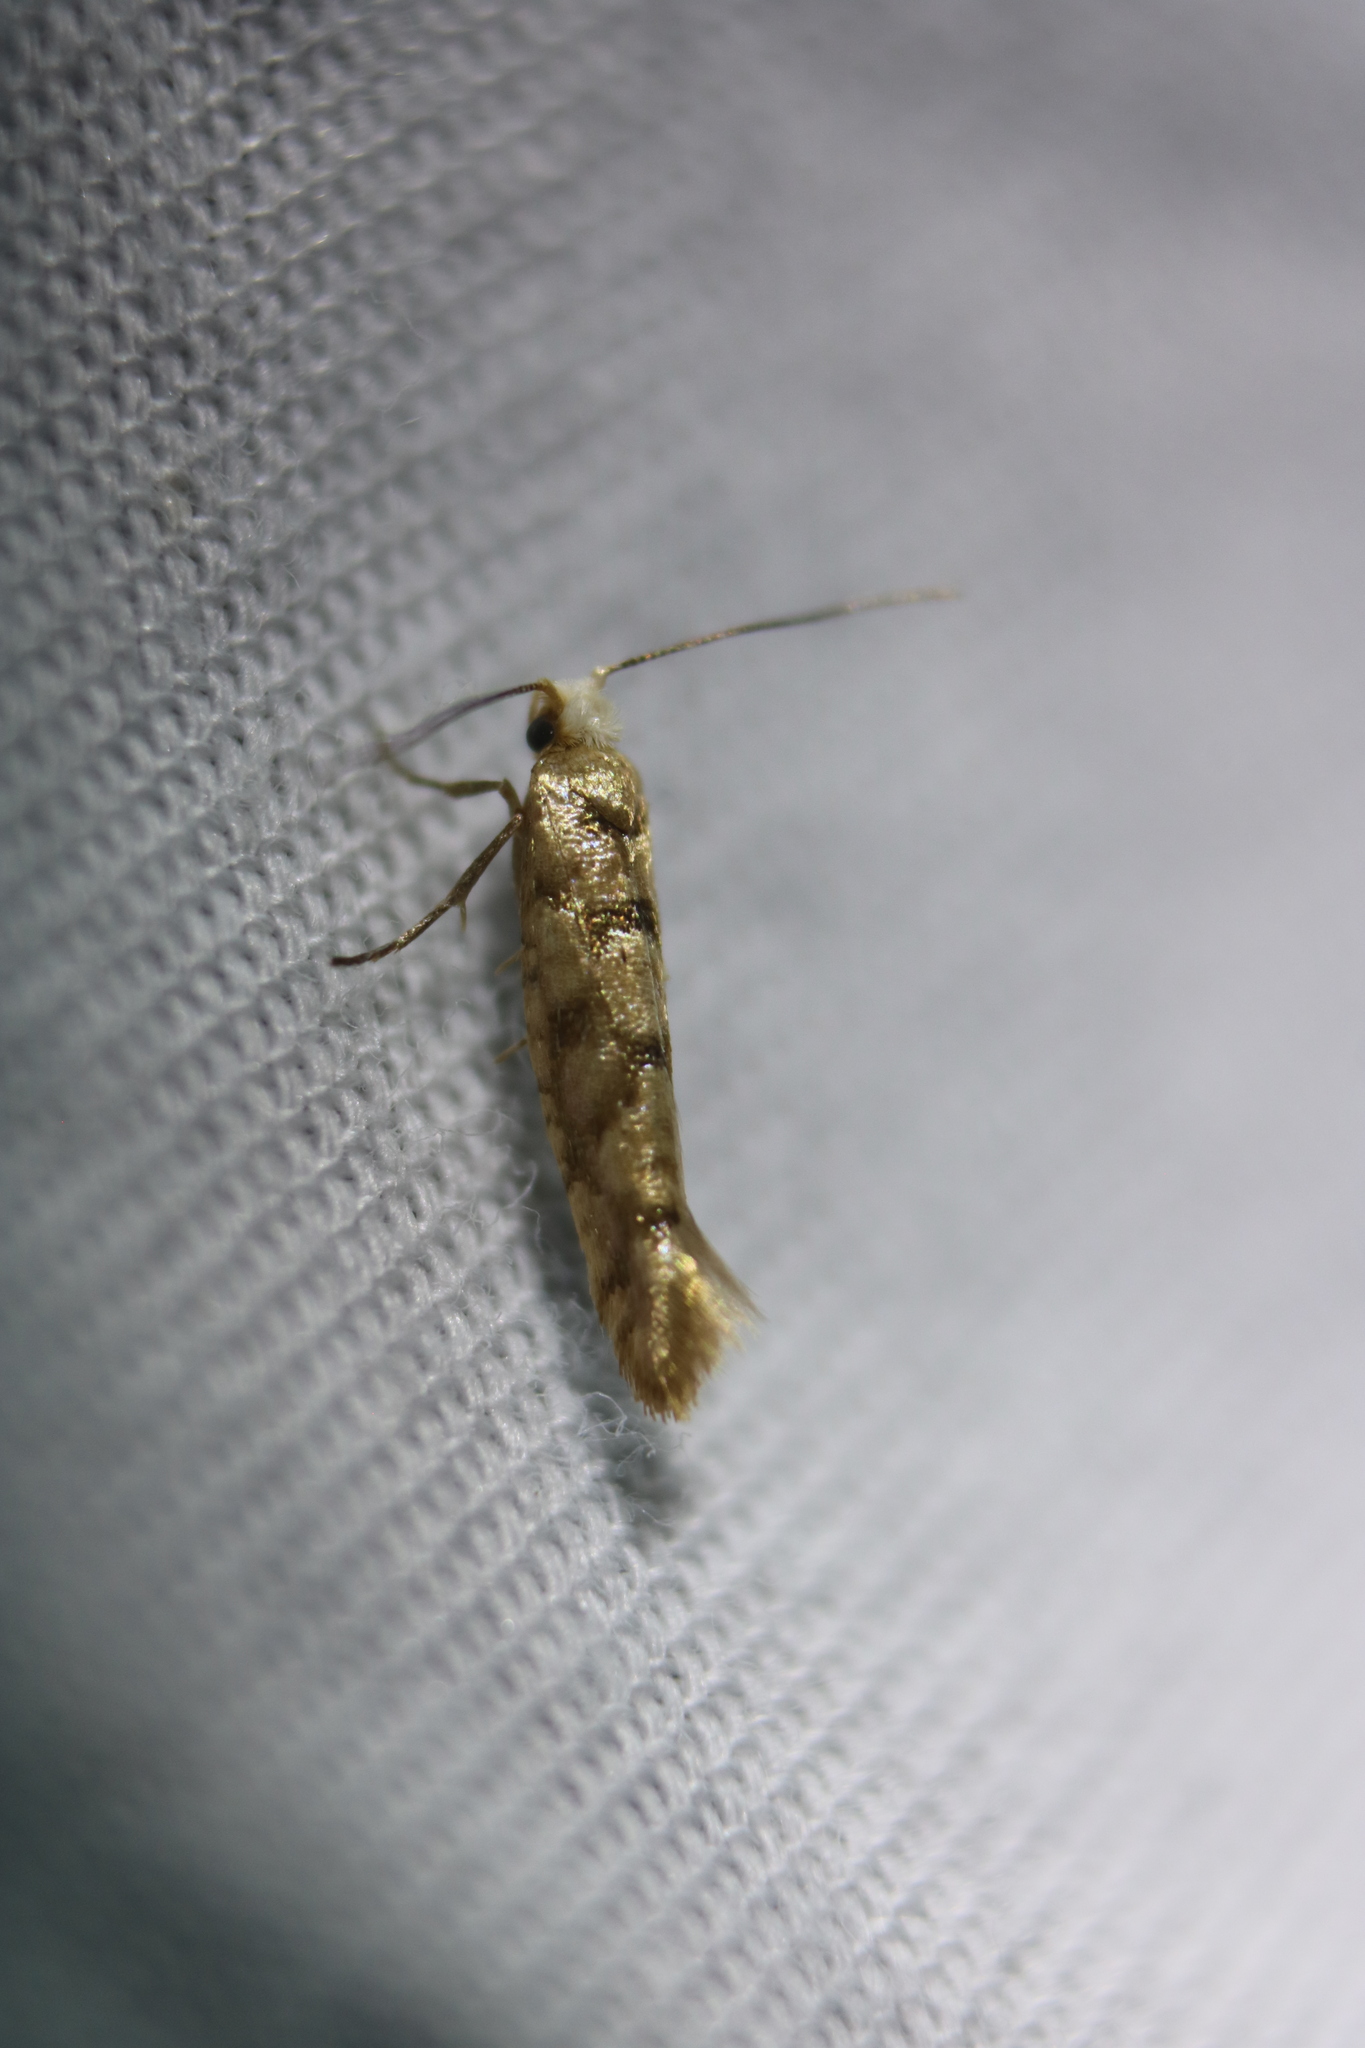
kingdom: Animalia
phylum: Arthropoda
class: Insecta
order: Lepidoptera
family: Argyresthiidae
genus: Argyresthia
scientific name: Argyresthia alternatella
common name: Juniper seed moth
